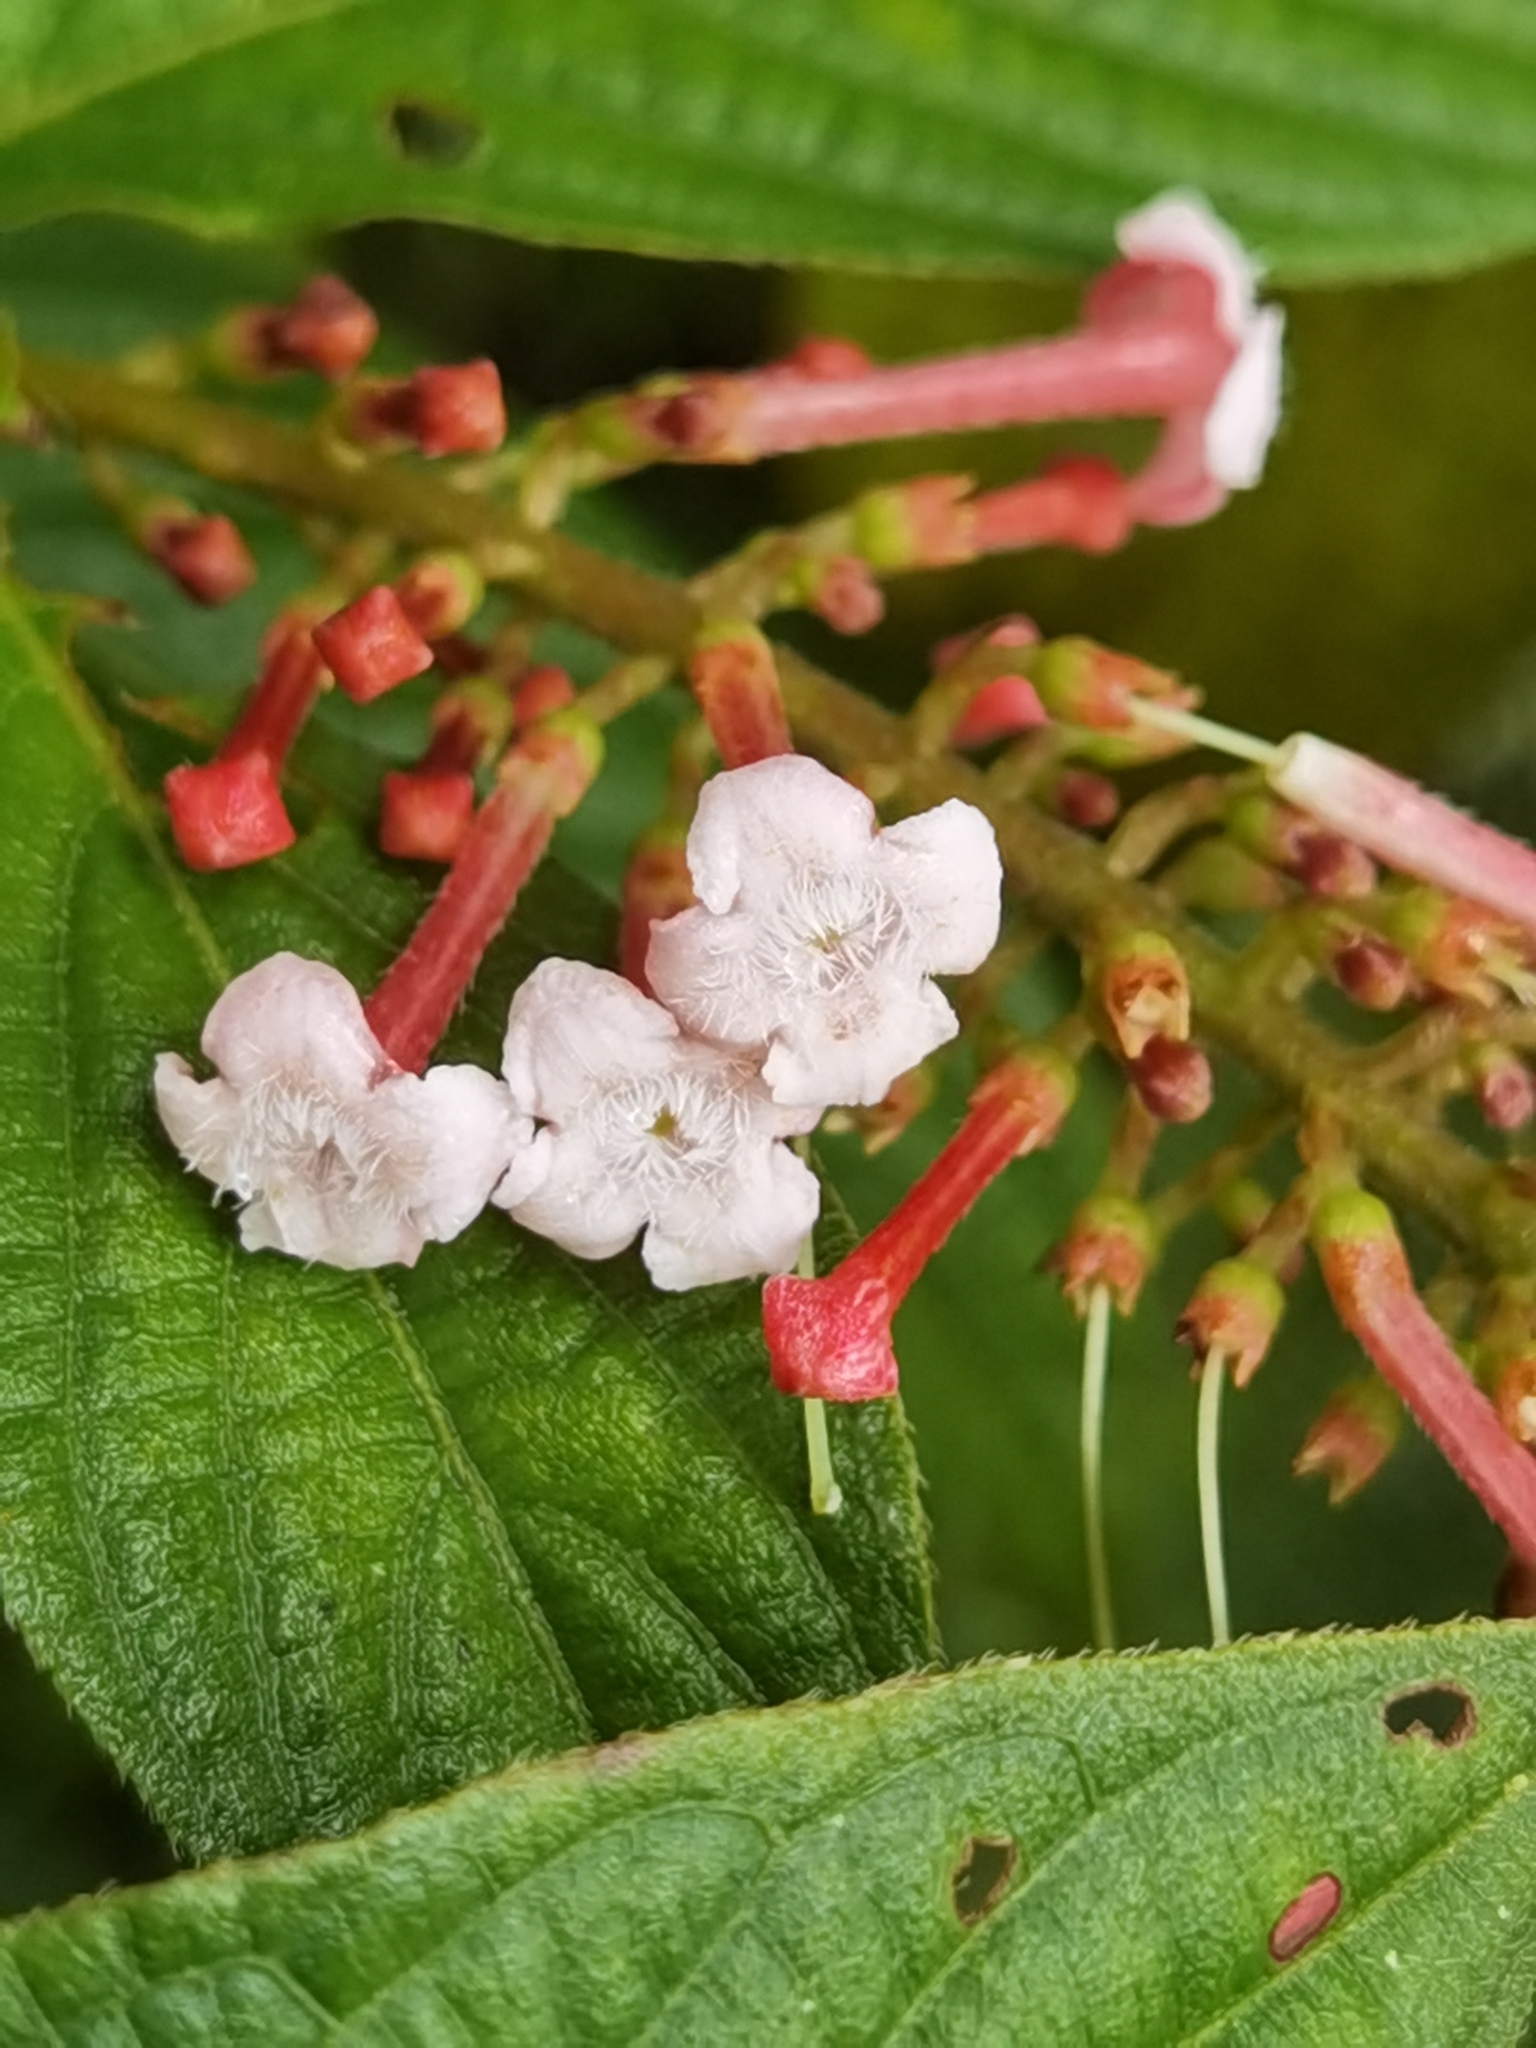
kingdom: Plantae
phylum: Tracheophyta
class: Magnoliopsida
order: Gentianales
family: Rubiaceae
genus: Gonzalagunia
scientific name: Gonzalagunia rosea
